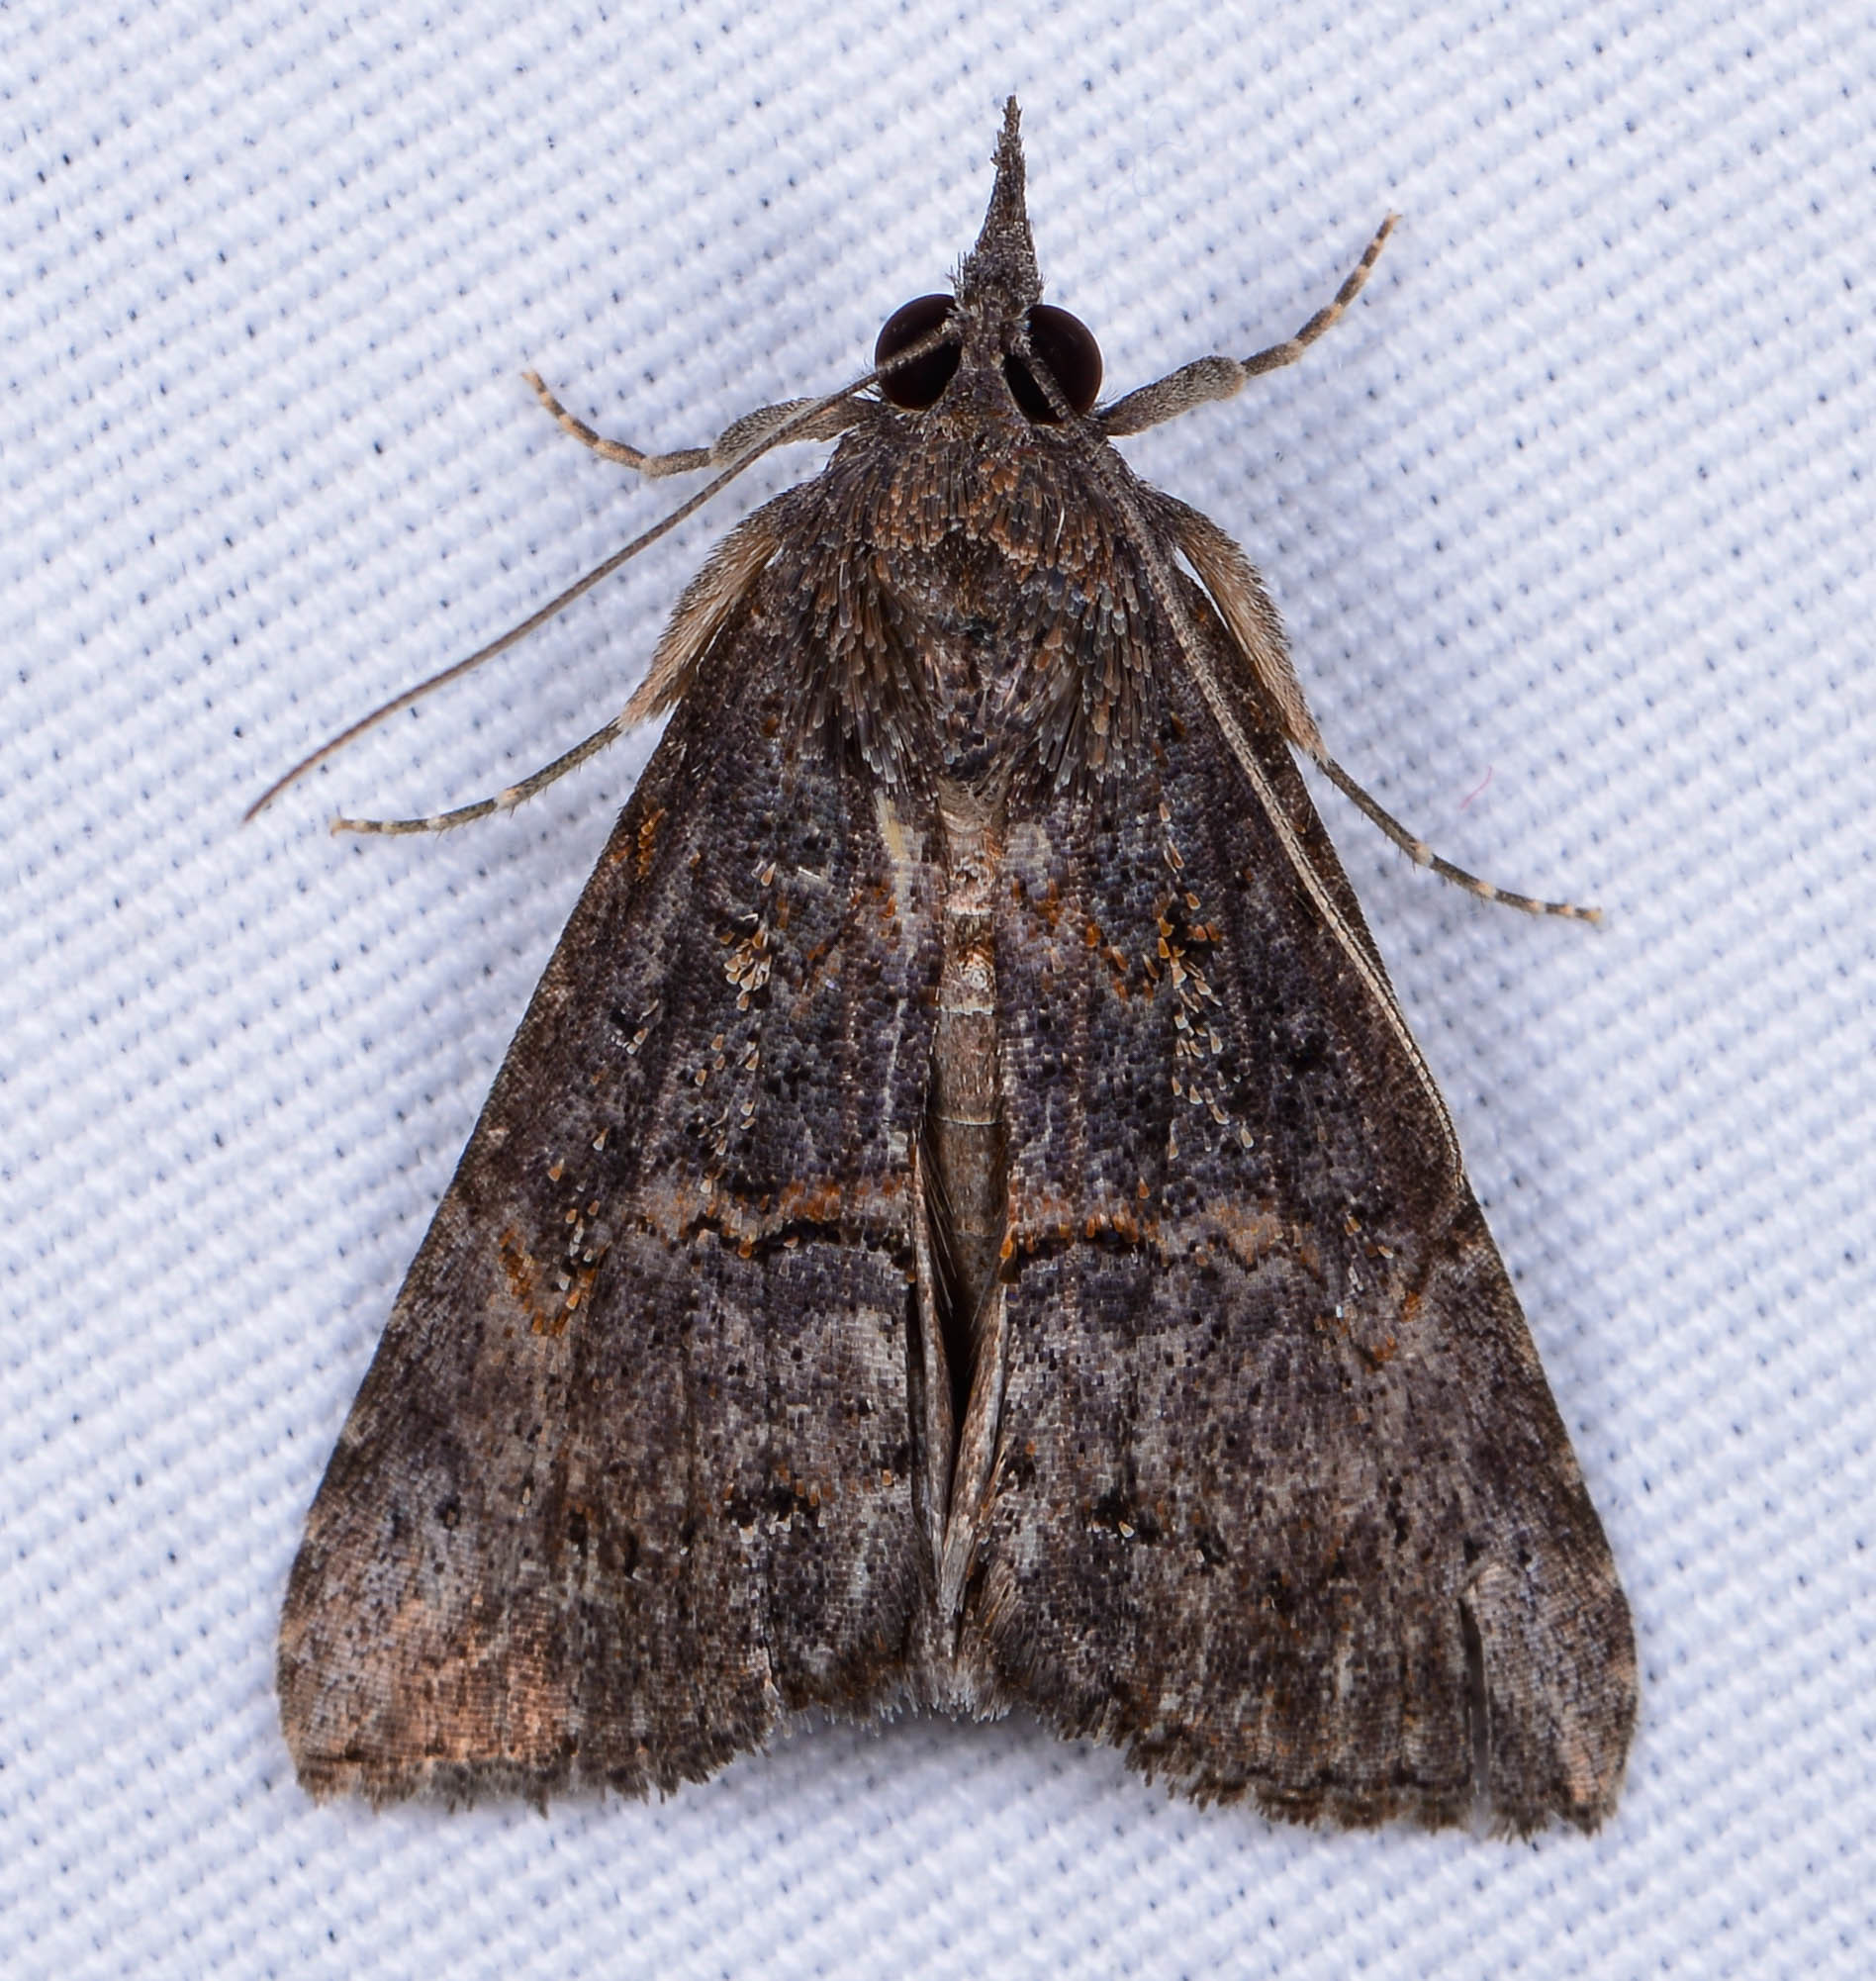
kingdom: Animalia
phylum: Arthropoda
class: Insecta
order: Lepidoptera
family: Erebidae
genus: Hypena
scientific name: Hypena scabra
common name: Green cloverworm
